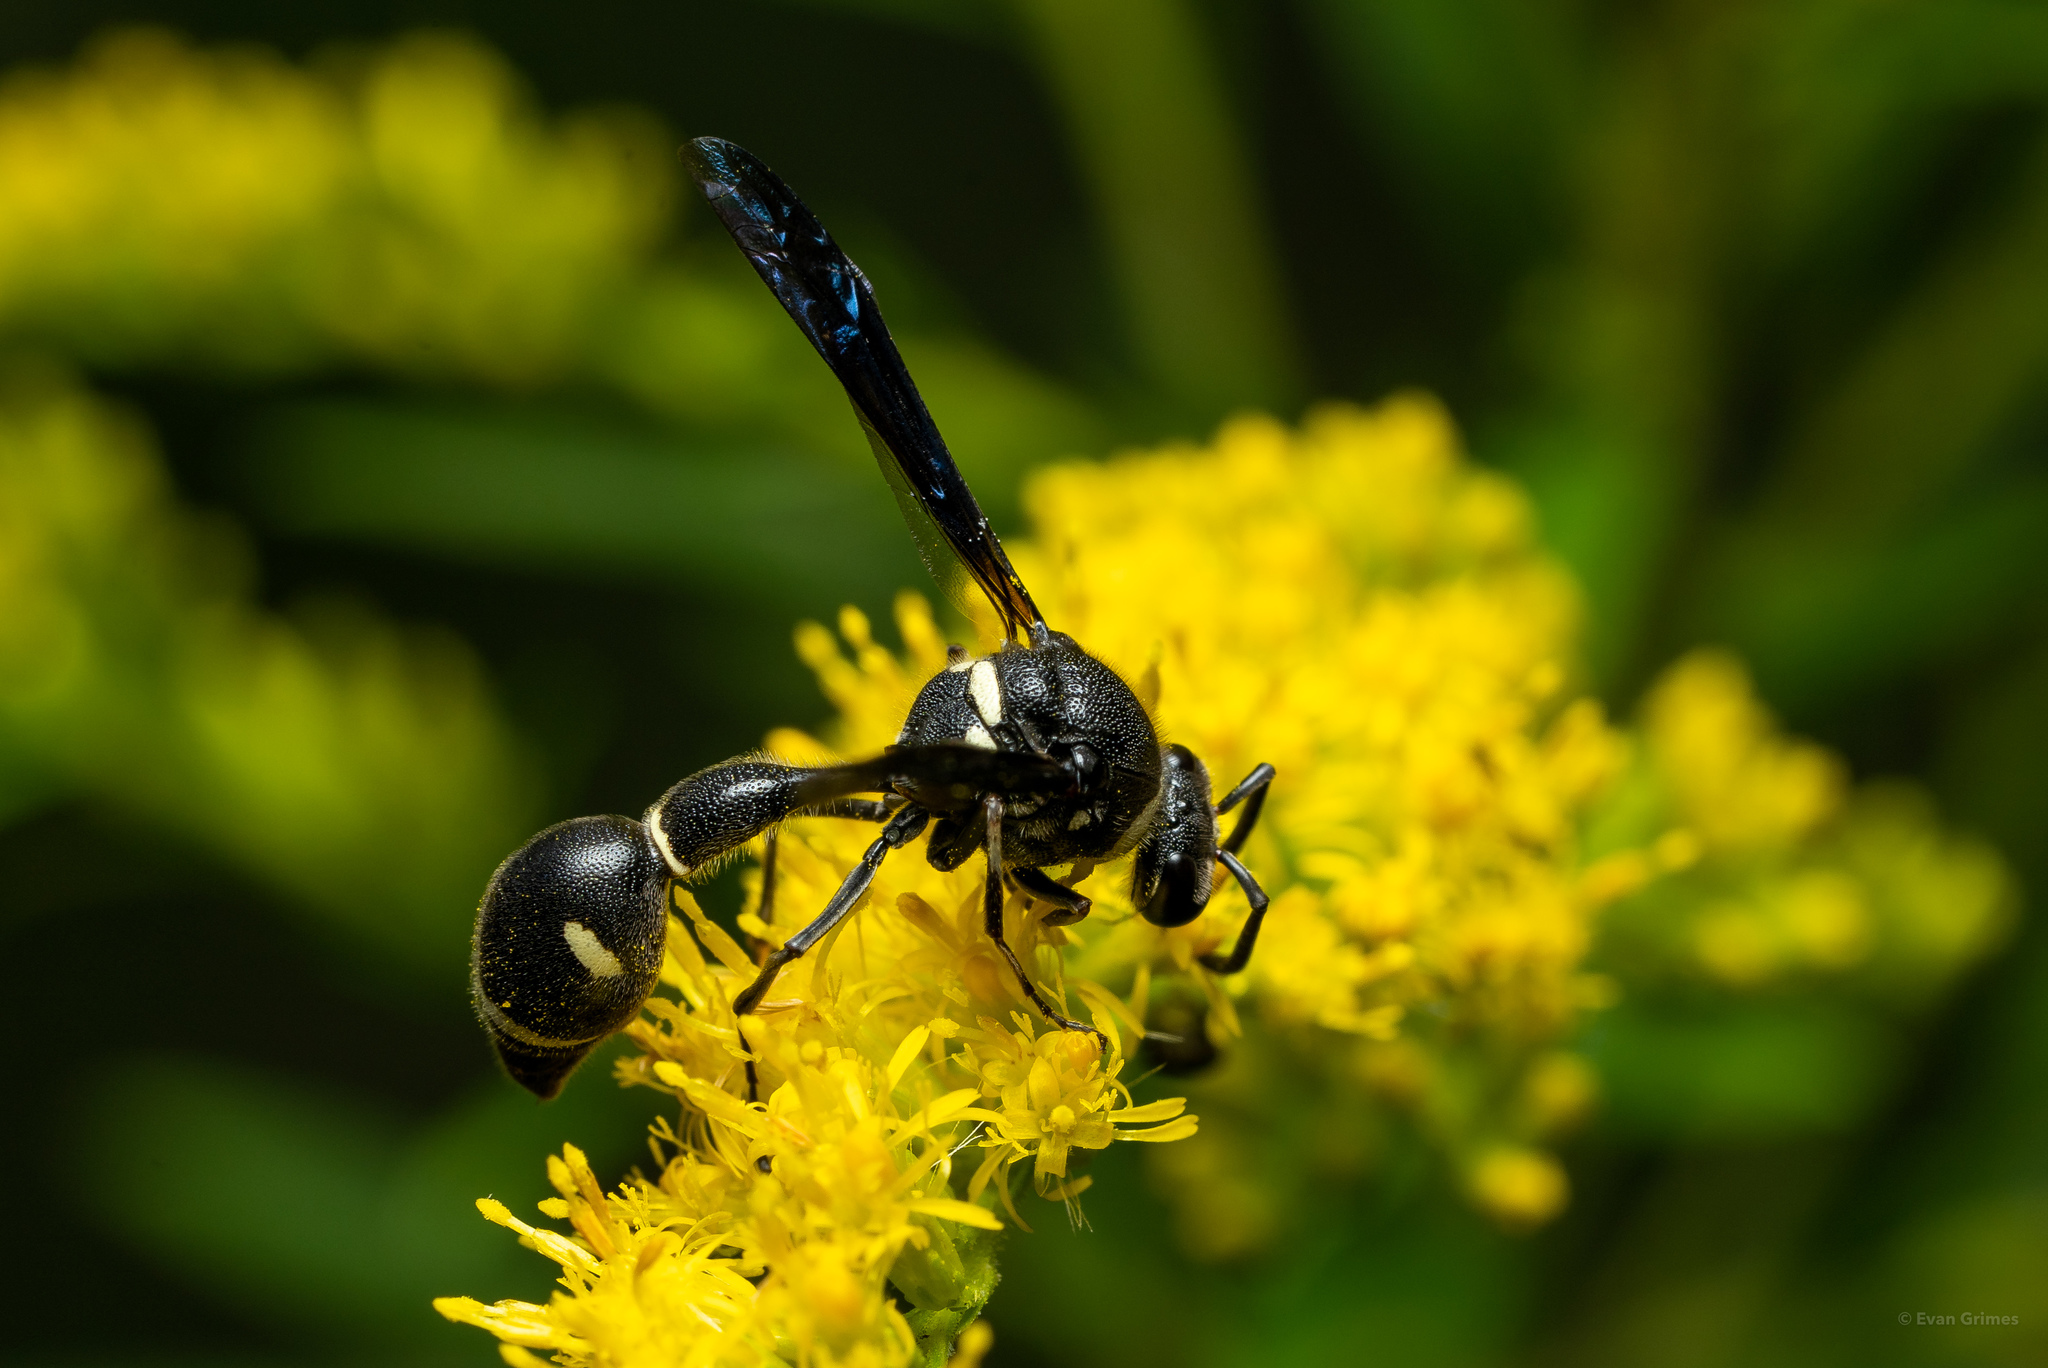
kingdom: Animalia
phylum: Arthropoda
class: Insecta
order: Hymenoptera
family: Vespidae
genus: Eumenes
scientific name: Eumenes fraternus
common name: Fraternal potter wasp
